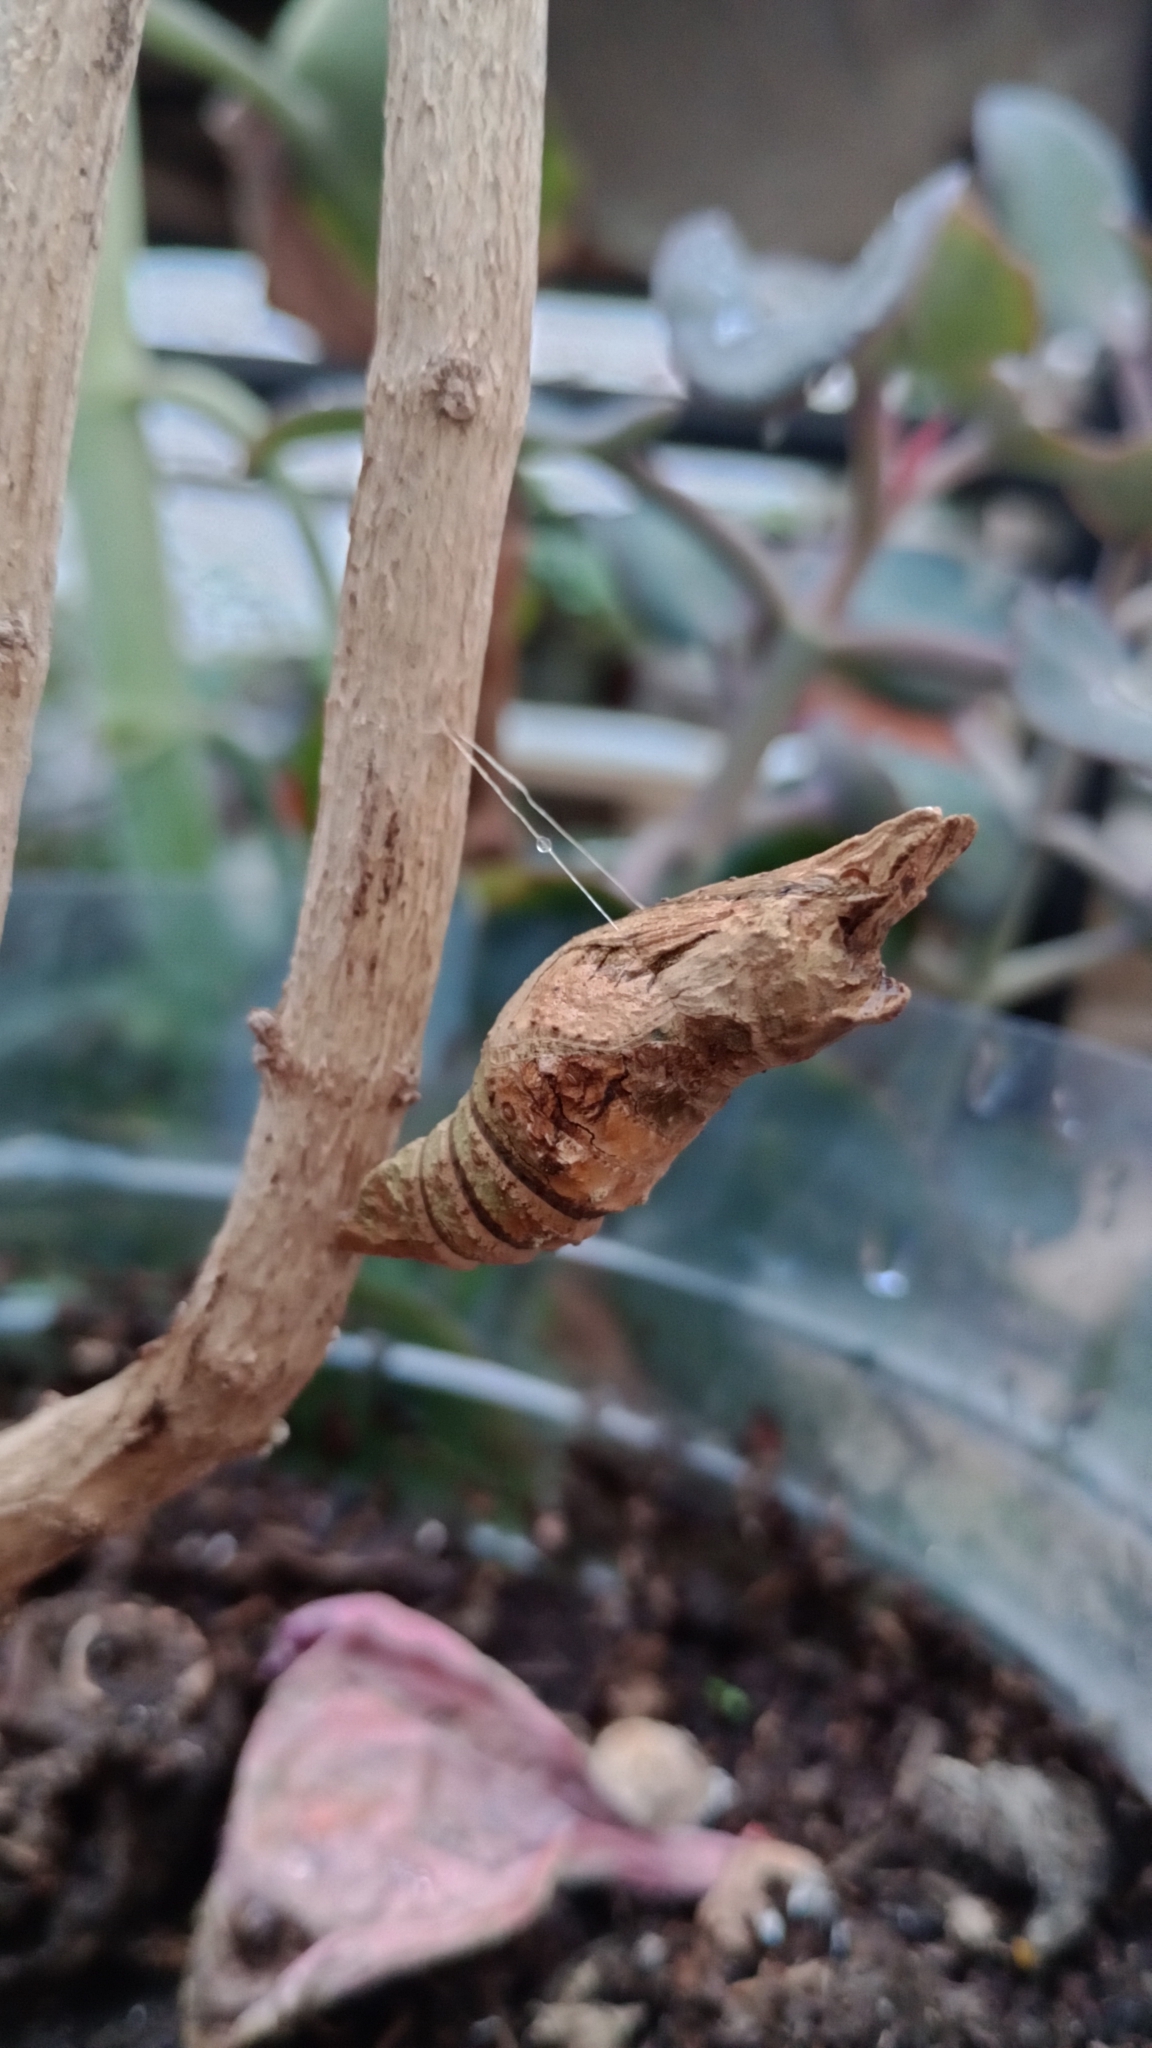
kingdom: Animalia
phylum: Arthropoda
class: Insecta
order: Lepidoptera
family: Papilionidae
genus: Papilio
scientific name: Papilio thoas
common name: King swallowtail
